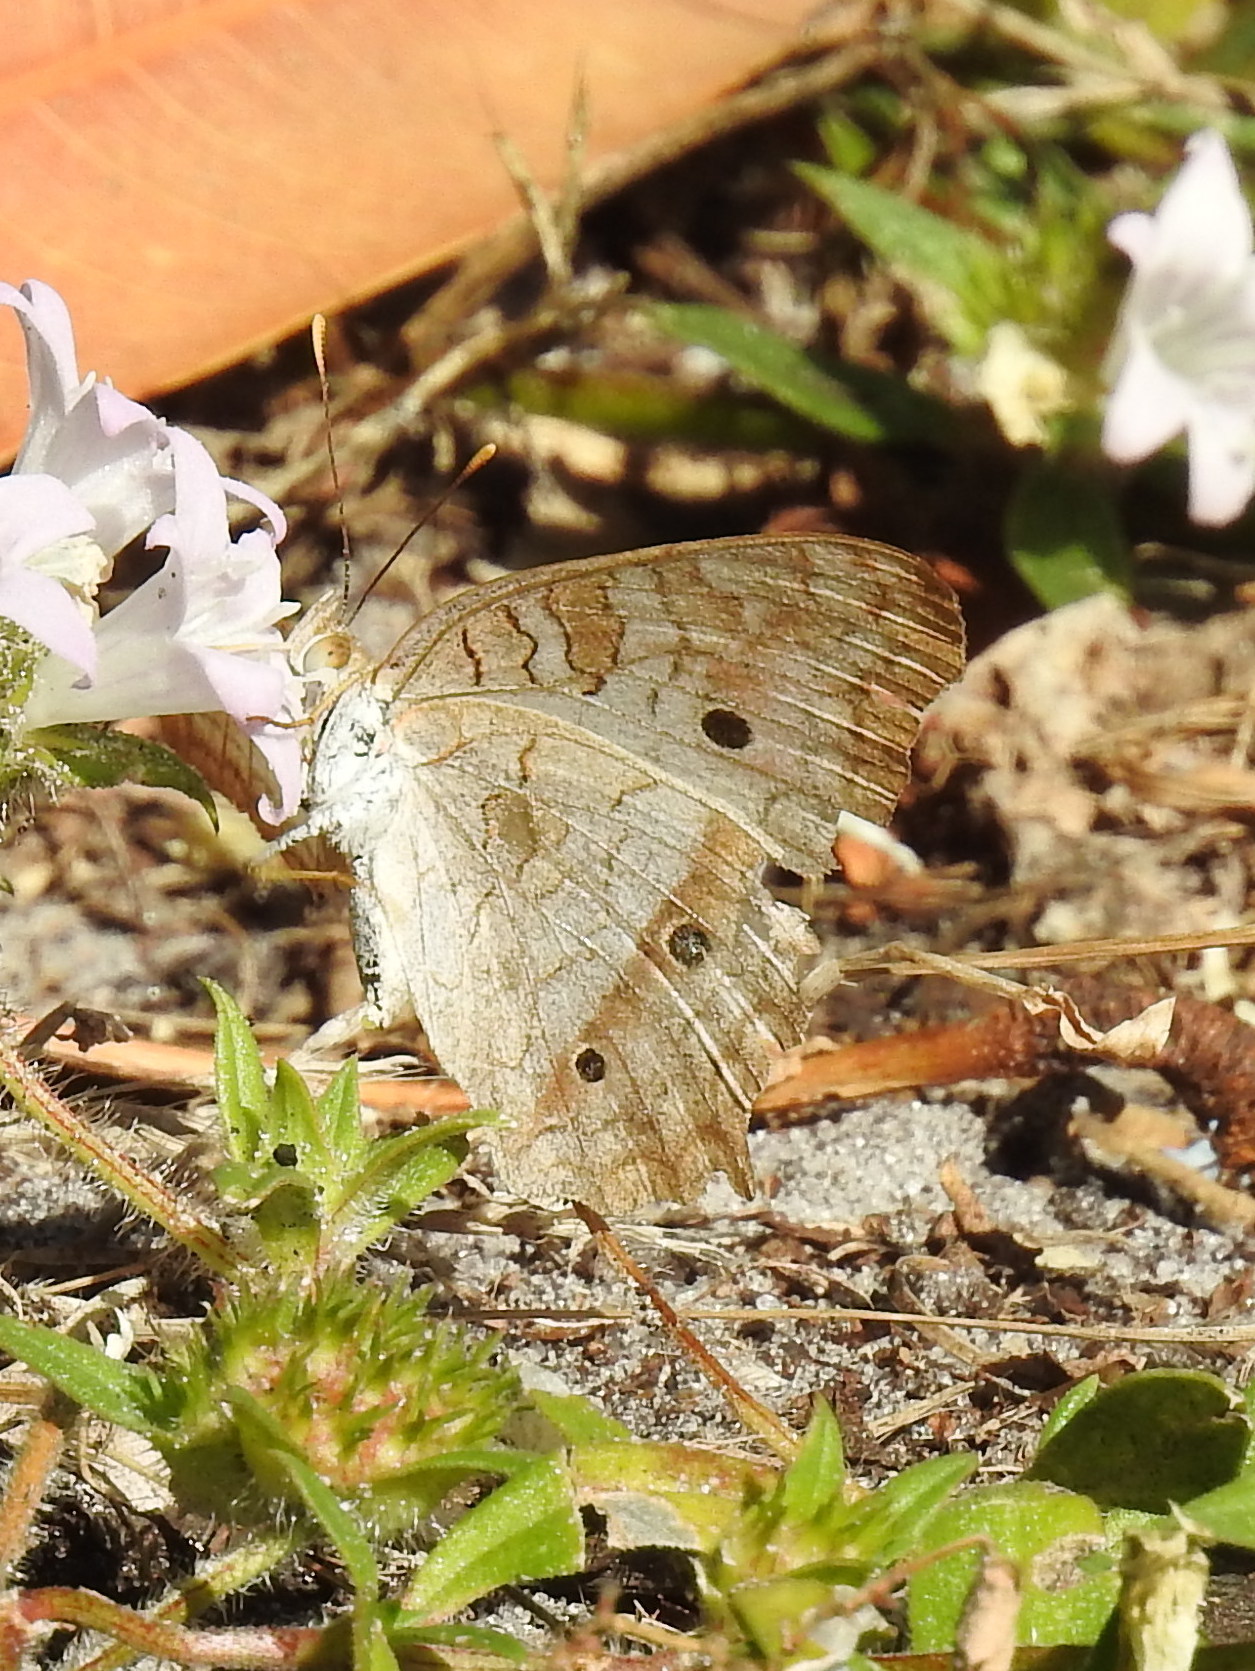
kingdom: Animalia
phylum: Arthropoda
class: Insecta
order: Lepidoptera
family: Nymphalidae
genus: Anartia
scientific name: Anartia jatrophae
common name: White peacock
